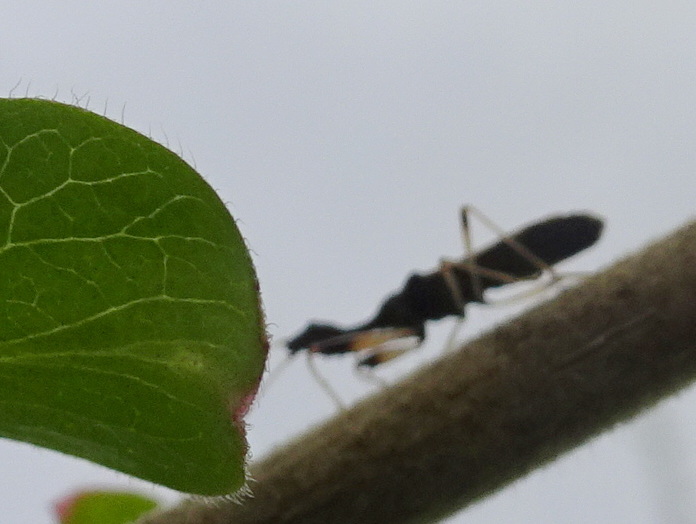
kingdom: Animalia
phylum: Arthropoda
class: Insecta
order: Hemiptera
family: Rhyparochromidae
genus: Myodocha
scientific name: Myodocha serripes
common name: Long-necked seed bug
